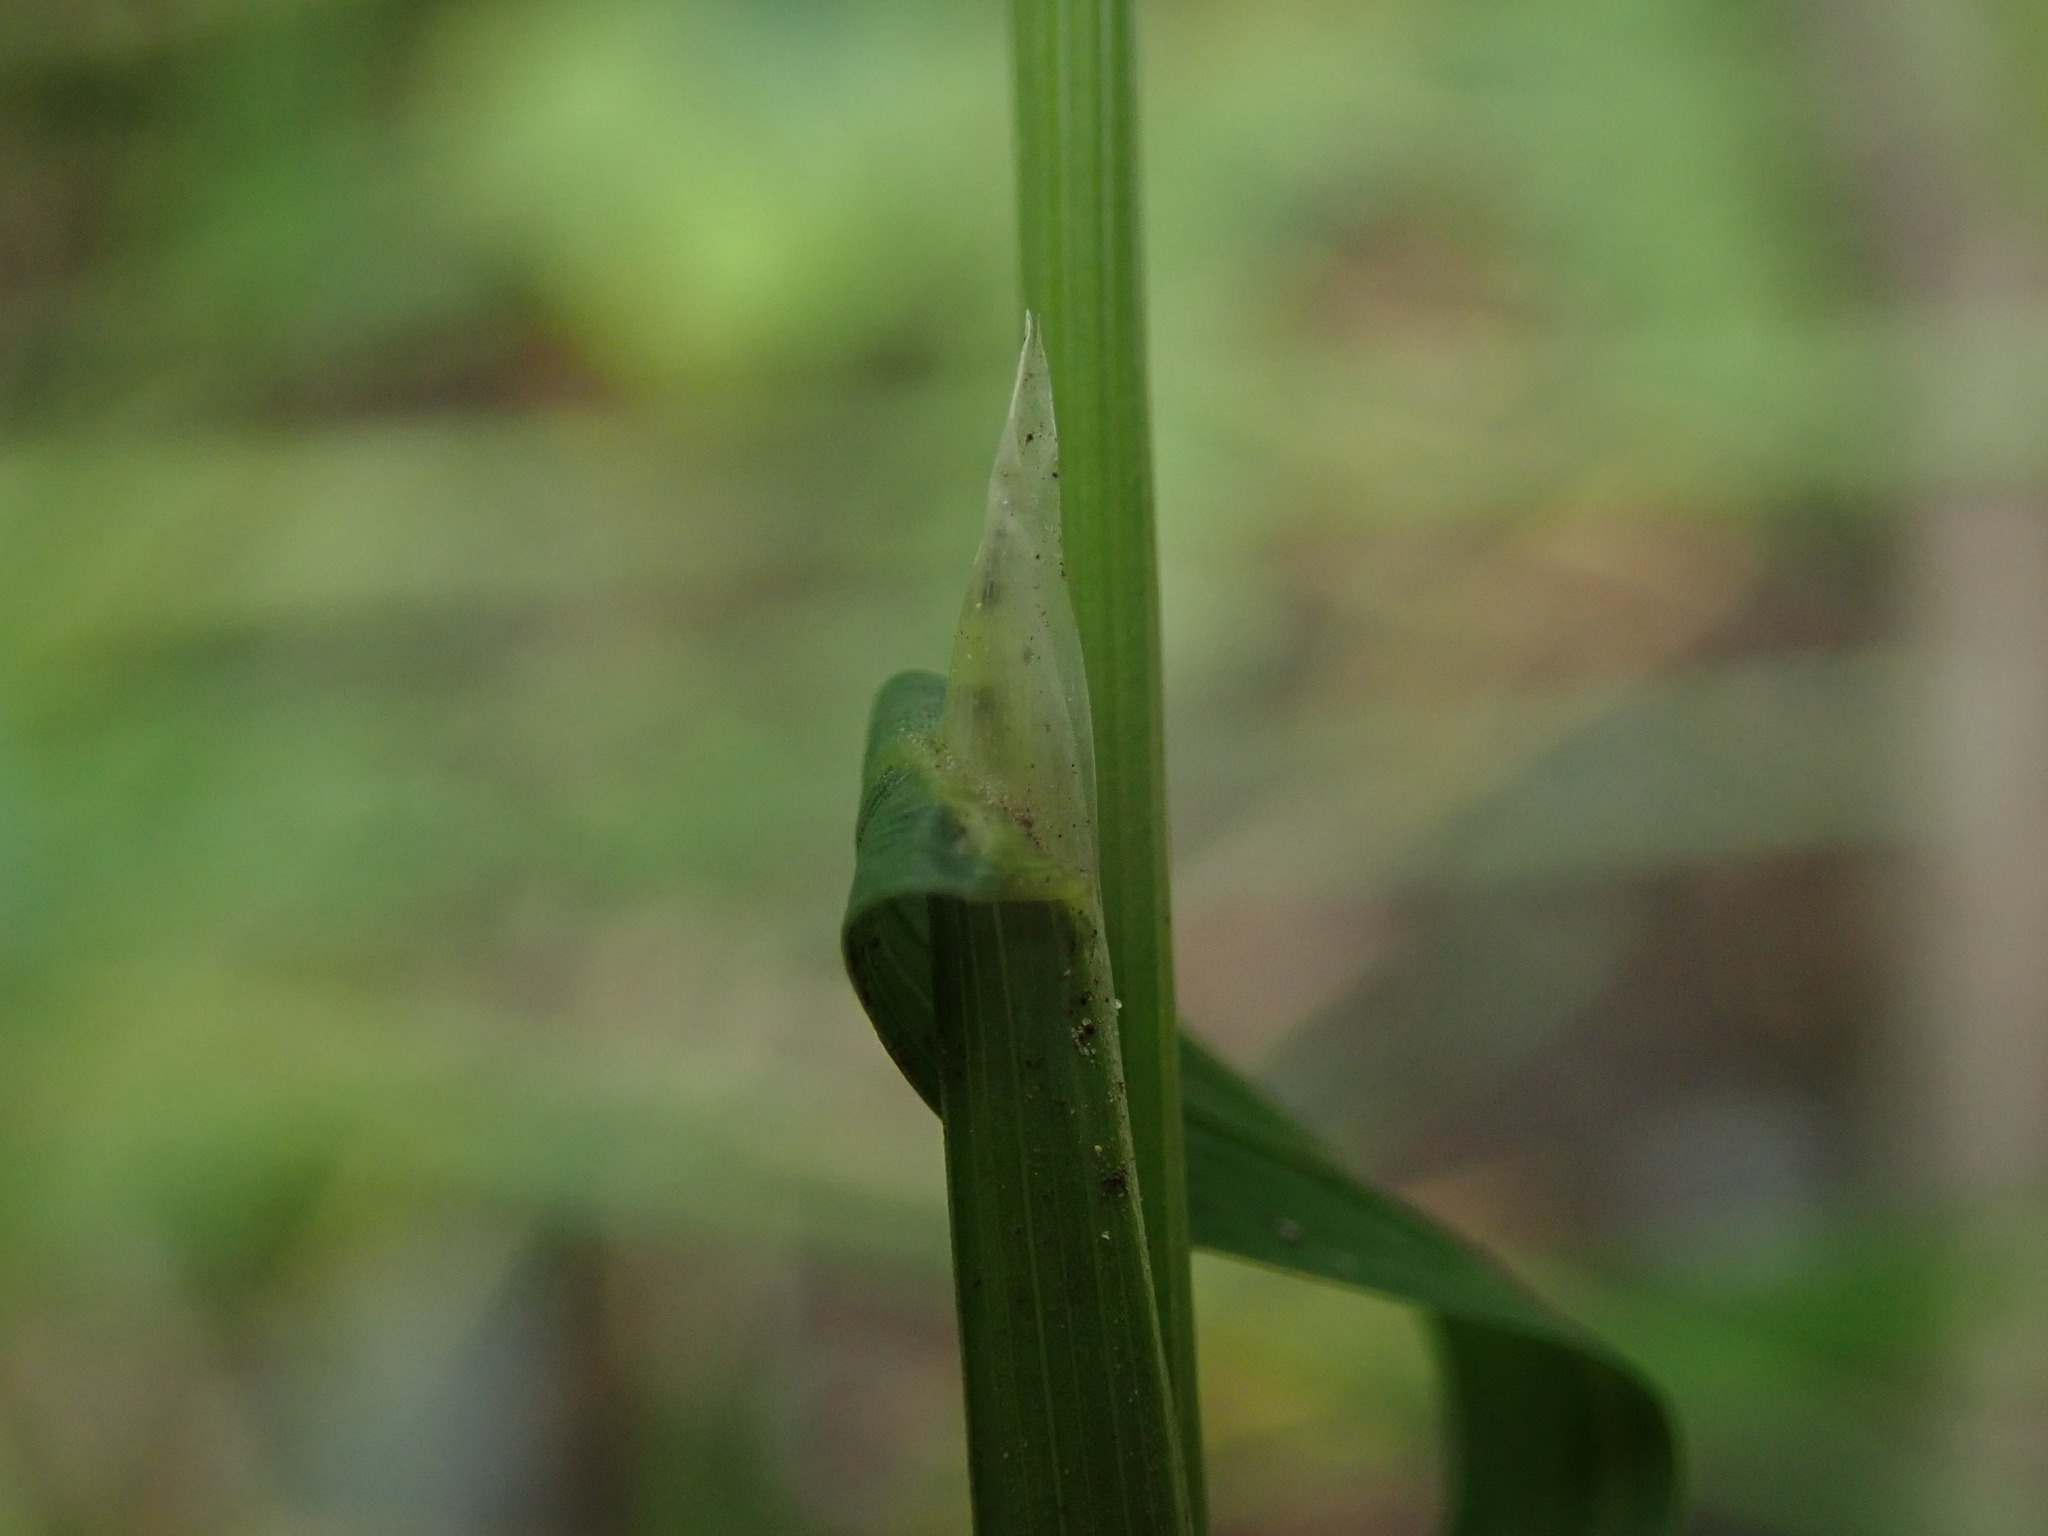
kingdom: Plantae
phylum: Tracheophyta
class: Liliopsida
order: Poales
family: Poaceae
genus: Poa
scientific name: Poa trivialis
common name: Rough bluegrass
